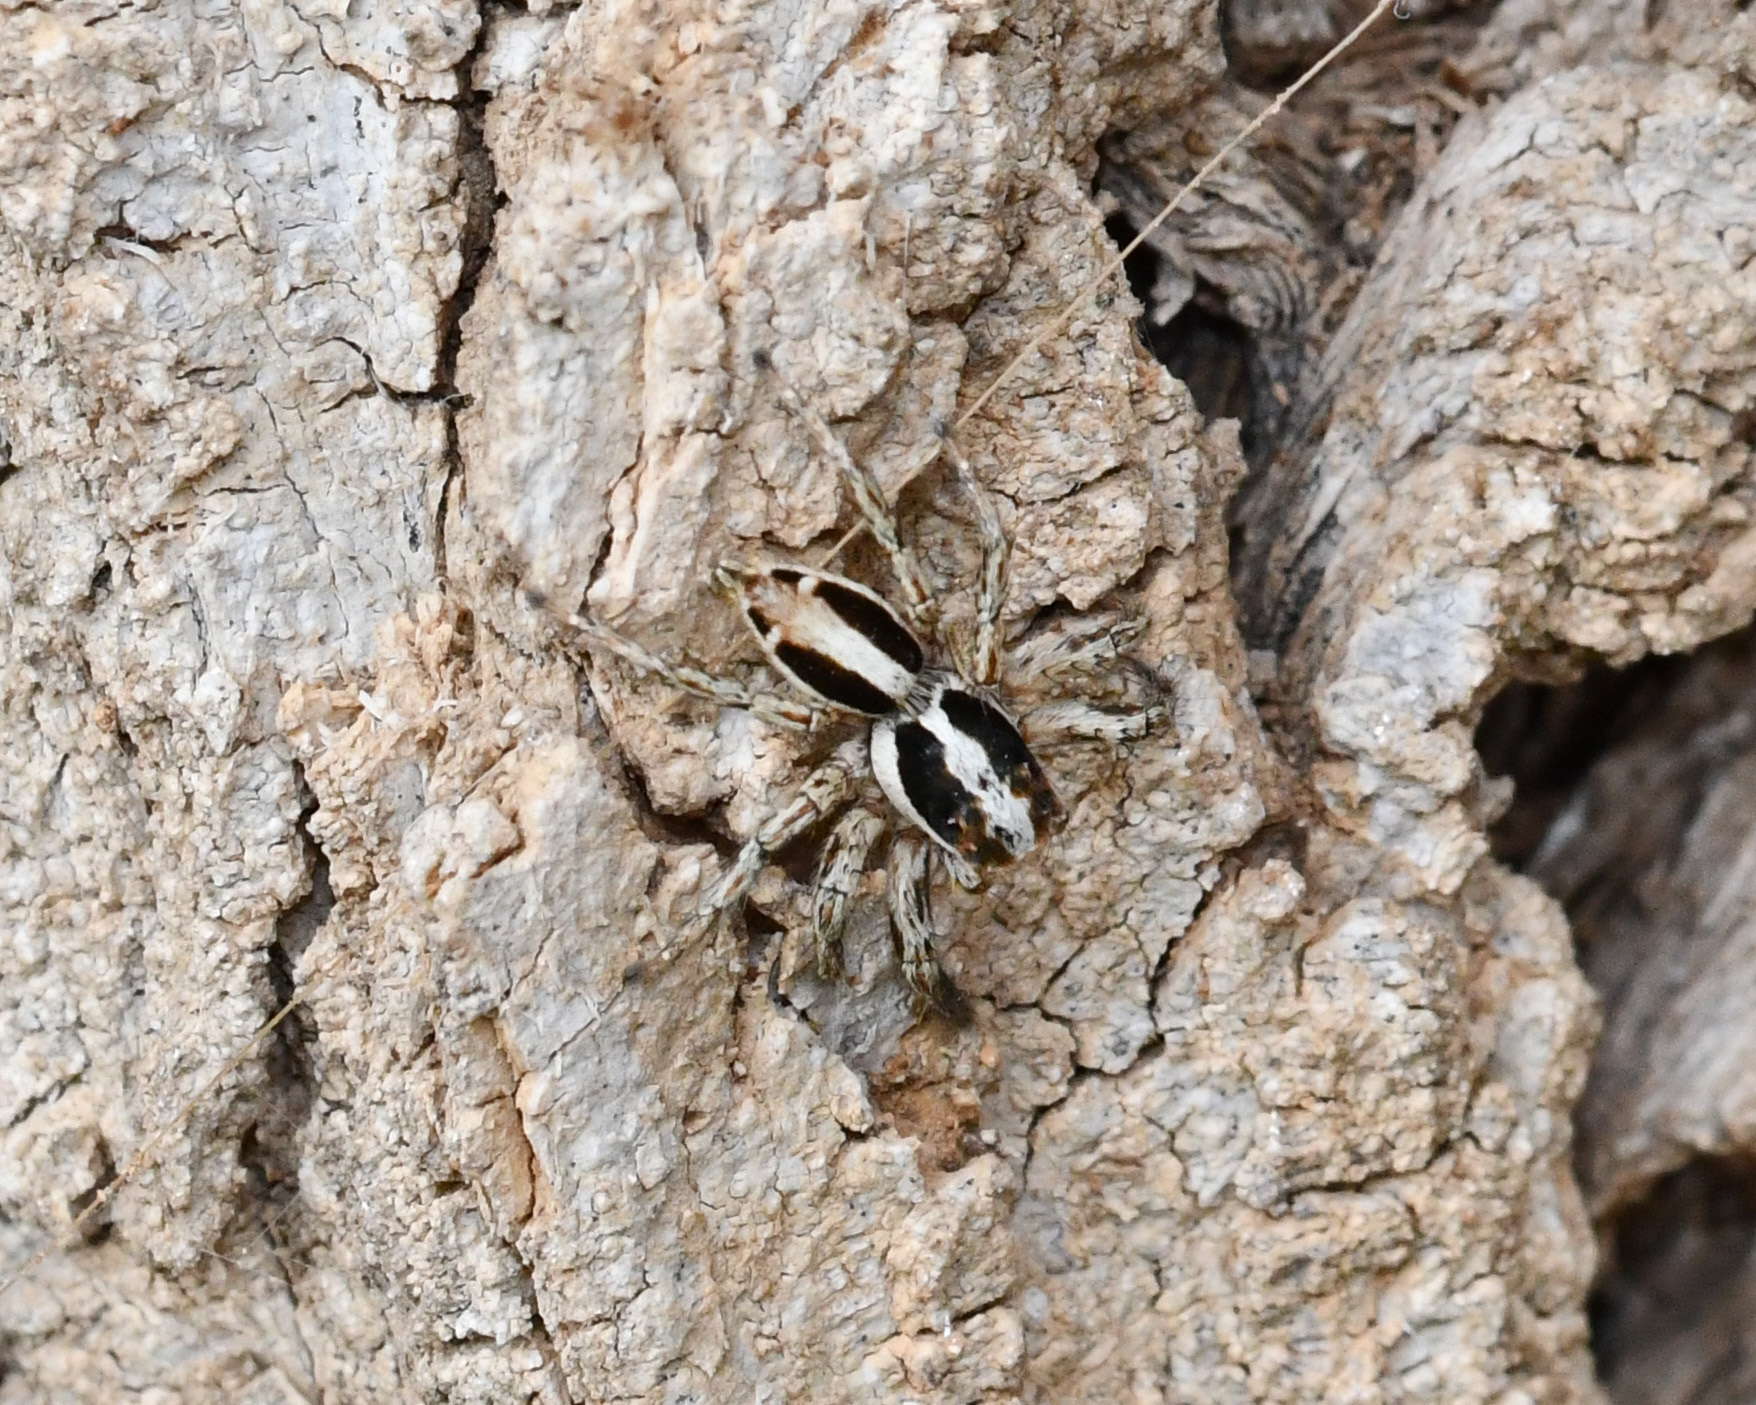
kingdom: Animalia
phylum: Arthropoda
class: Arachnida
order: Araneae
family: Salticidae
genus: Plexippus
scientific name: Plexippus paykulli
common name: Pantropical jumper
